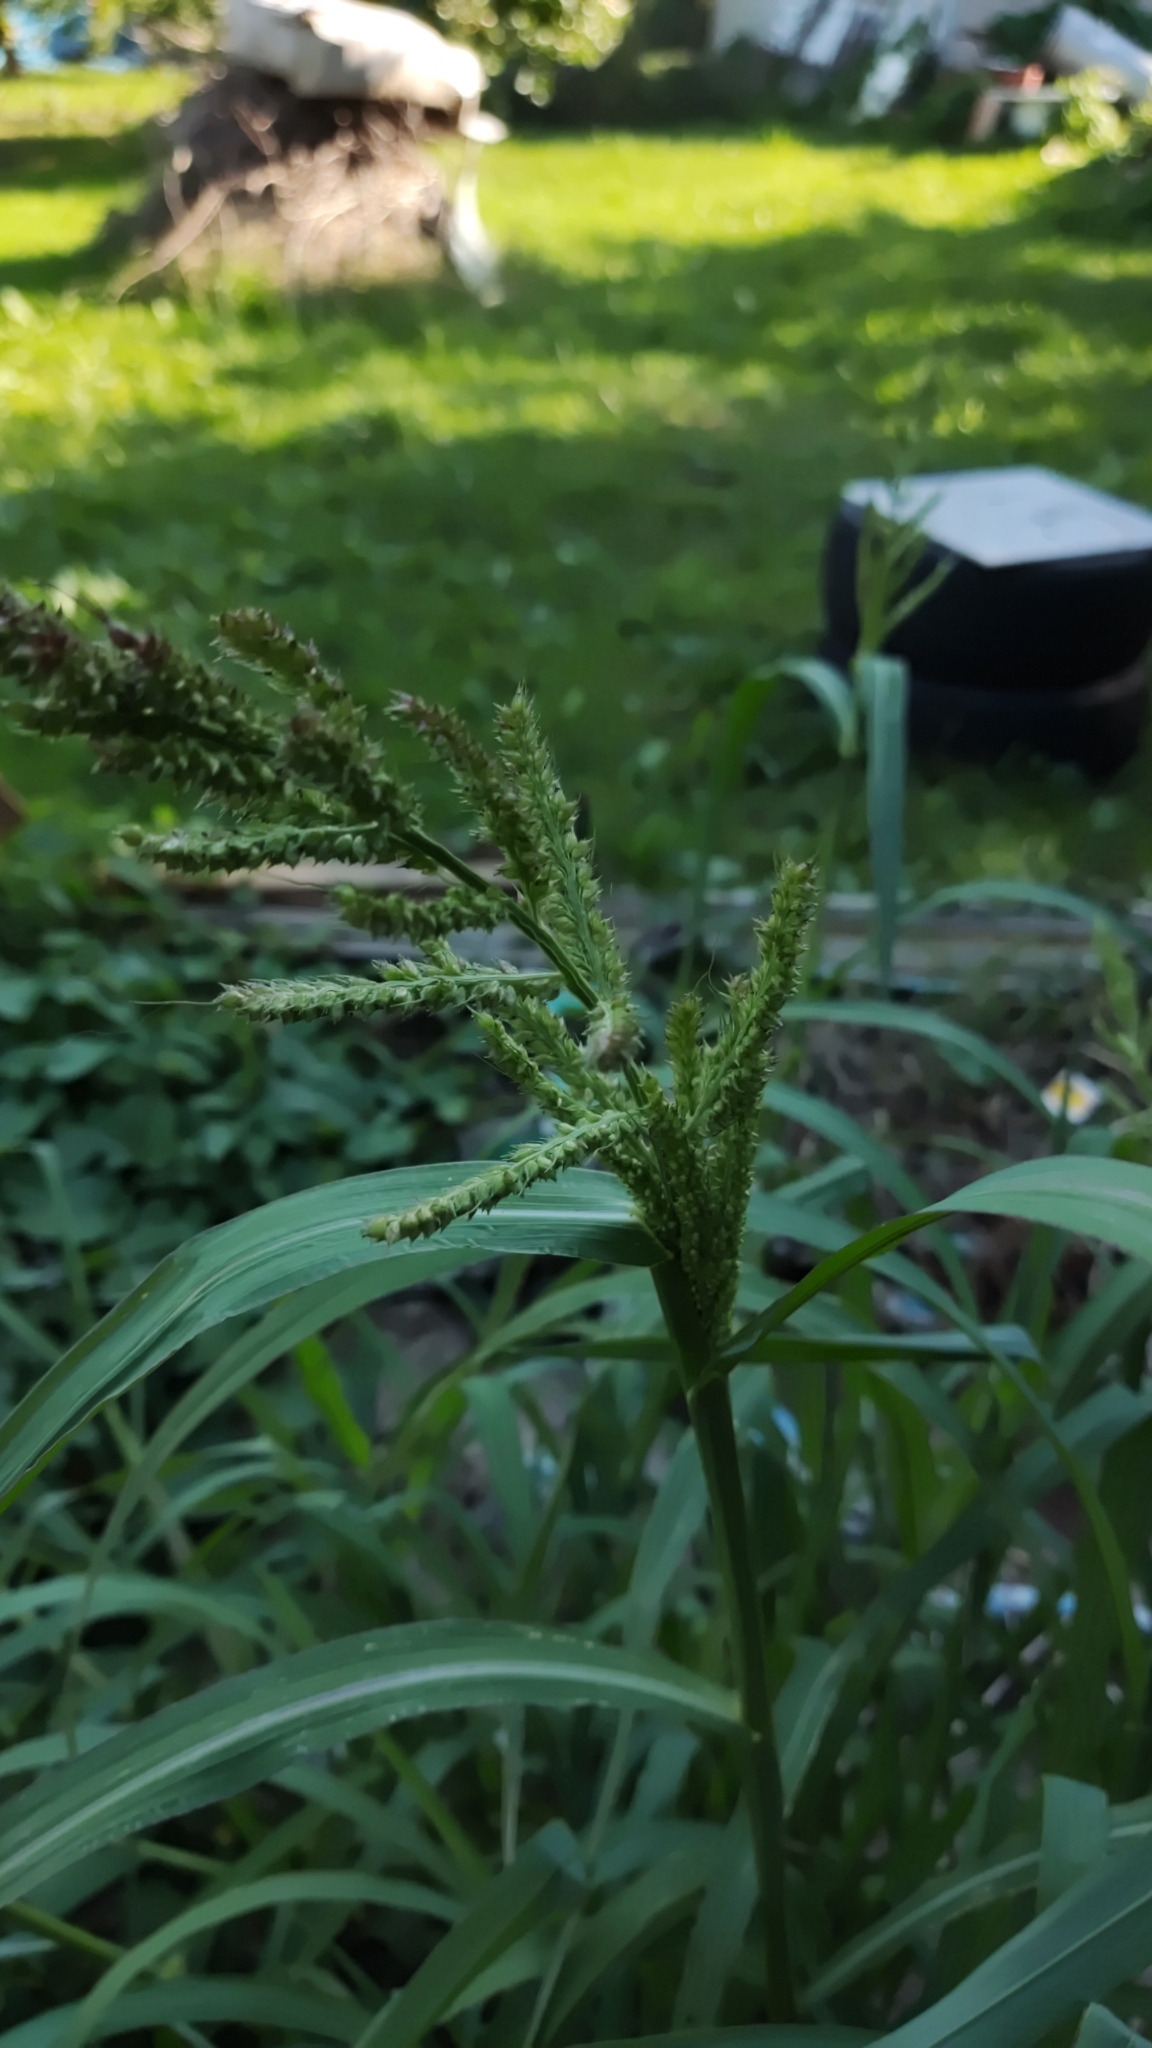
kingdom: Plantae
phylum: Tracheophyta
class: Liliopsida
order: Poales
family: Poaceae
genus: Echinochloa
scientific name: Echinochloa crus-galli
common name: Cockspur
